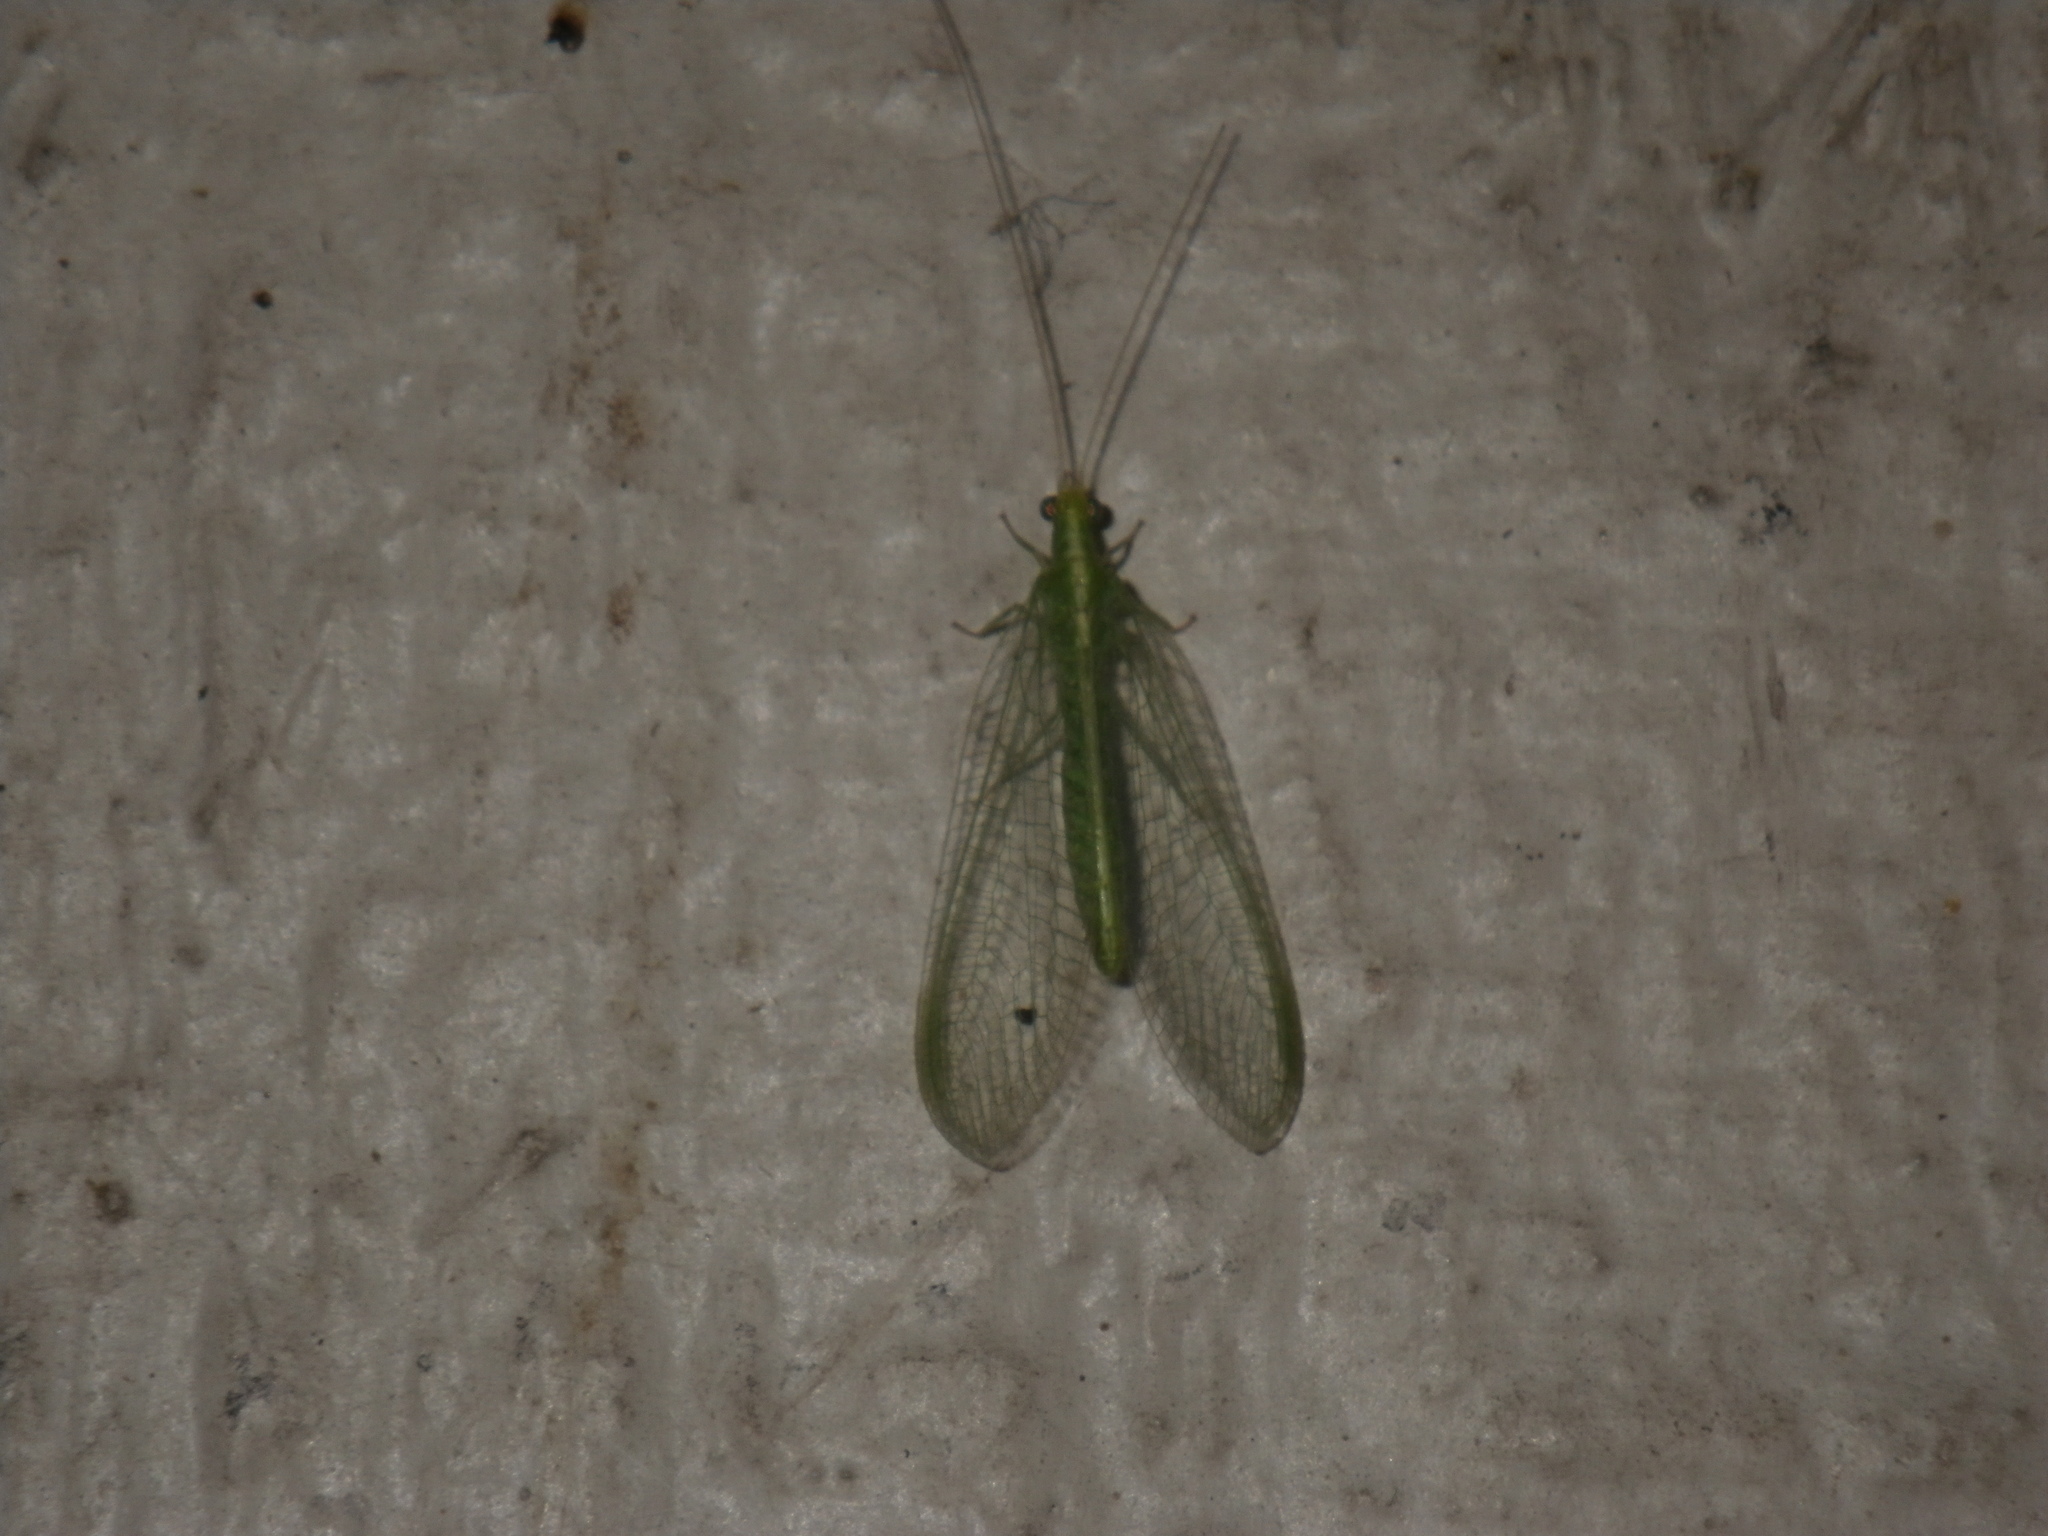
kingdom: Animalia
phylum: Arthropoda
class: Insecta
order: Neuroptera
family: Chrysopidae
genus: Chrysoperla
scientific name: Chrysoperla
